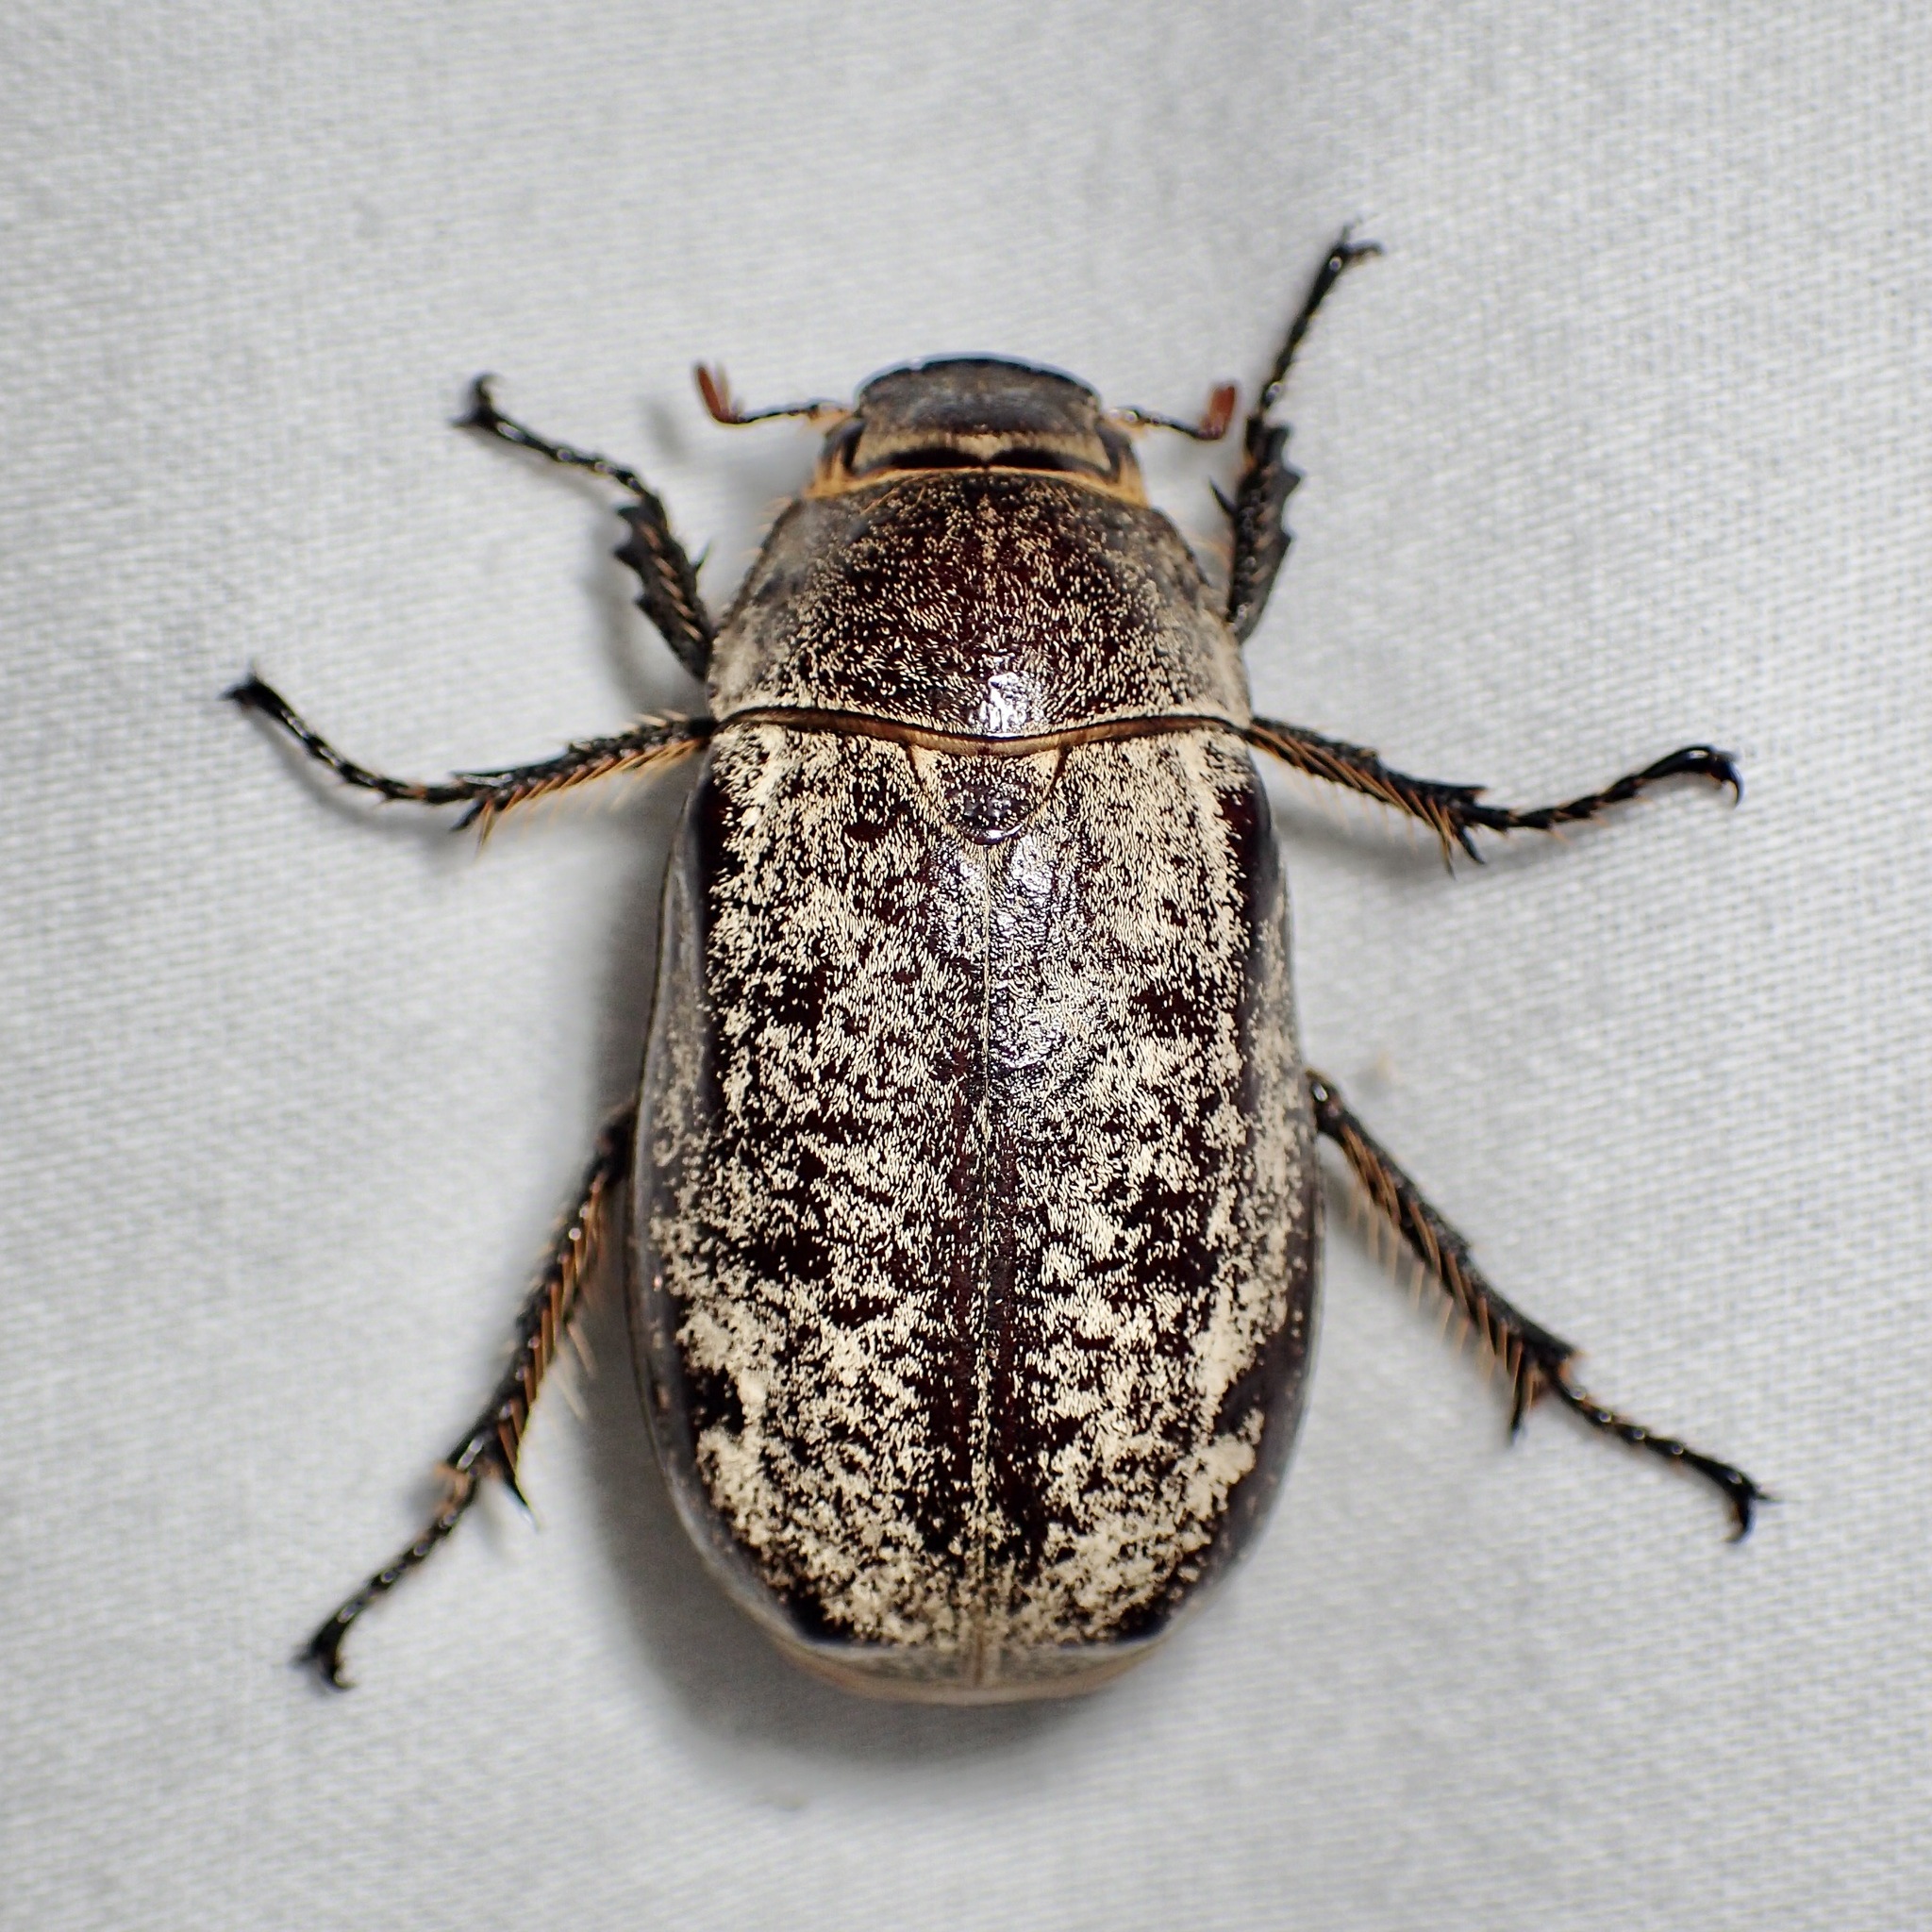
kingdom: Animalia
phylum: Arthropoda
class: Insecta
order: Coleoptera
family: Scarabaeidae
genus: Dermolepida
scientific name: Dermolepida albohirtum
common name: Greyback cane beetle
